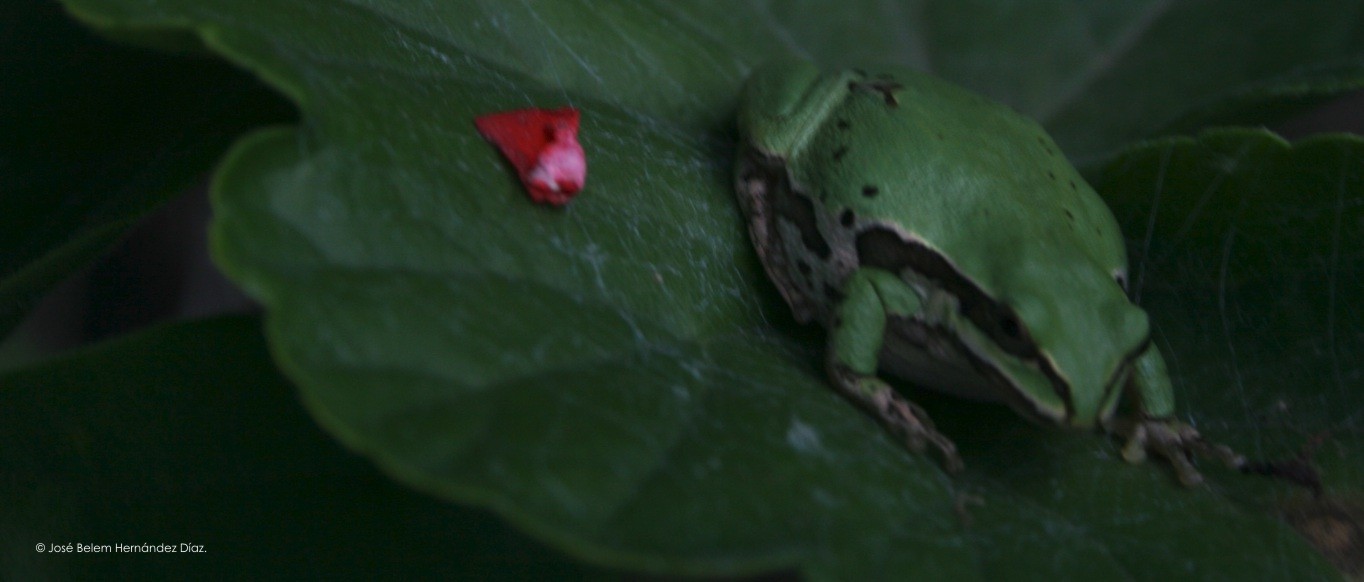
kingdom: Animalia
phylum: Chordata
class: Amphibia
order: Anura
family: Hylidae
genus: Dryophytes
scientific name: Dryophytes eximius
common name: Mountain treefrog
